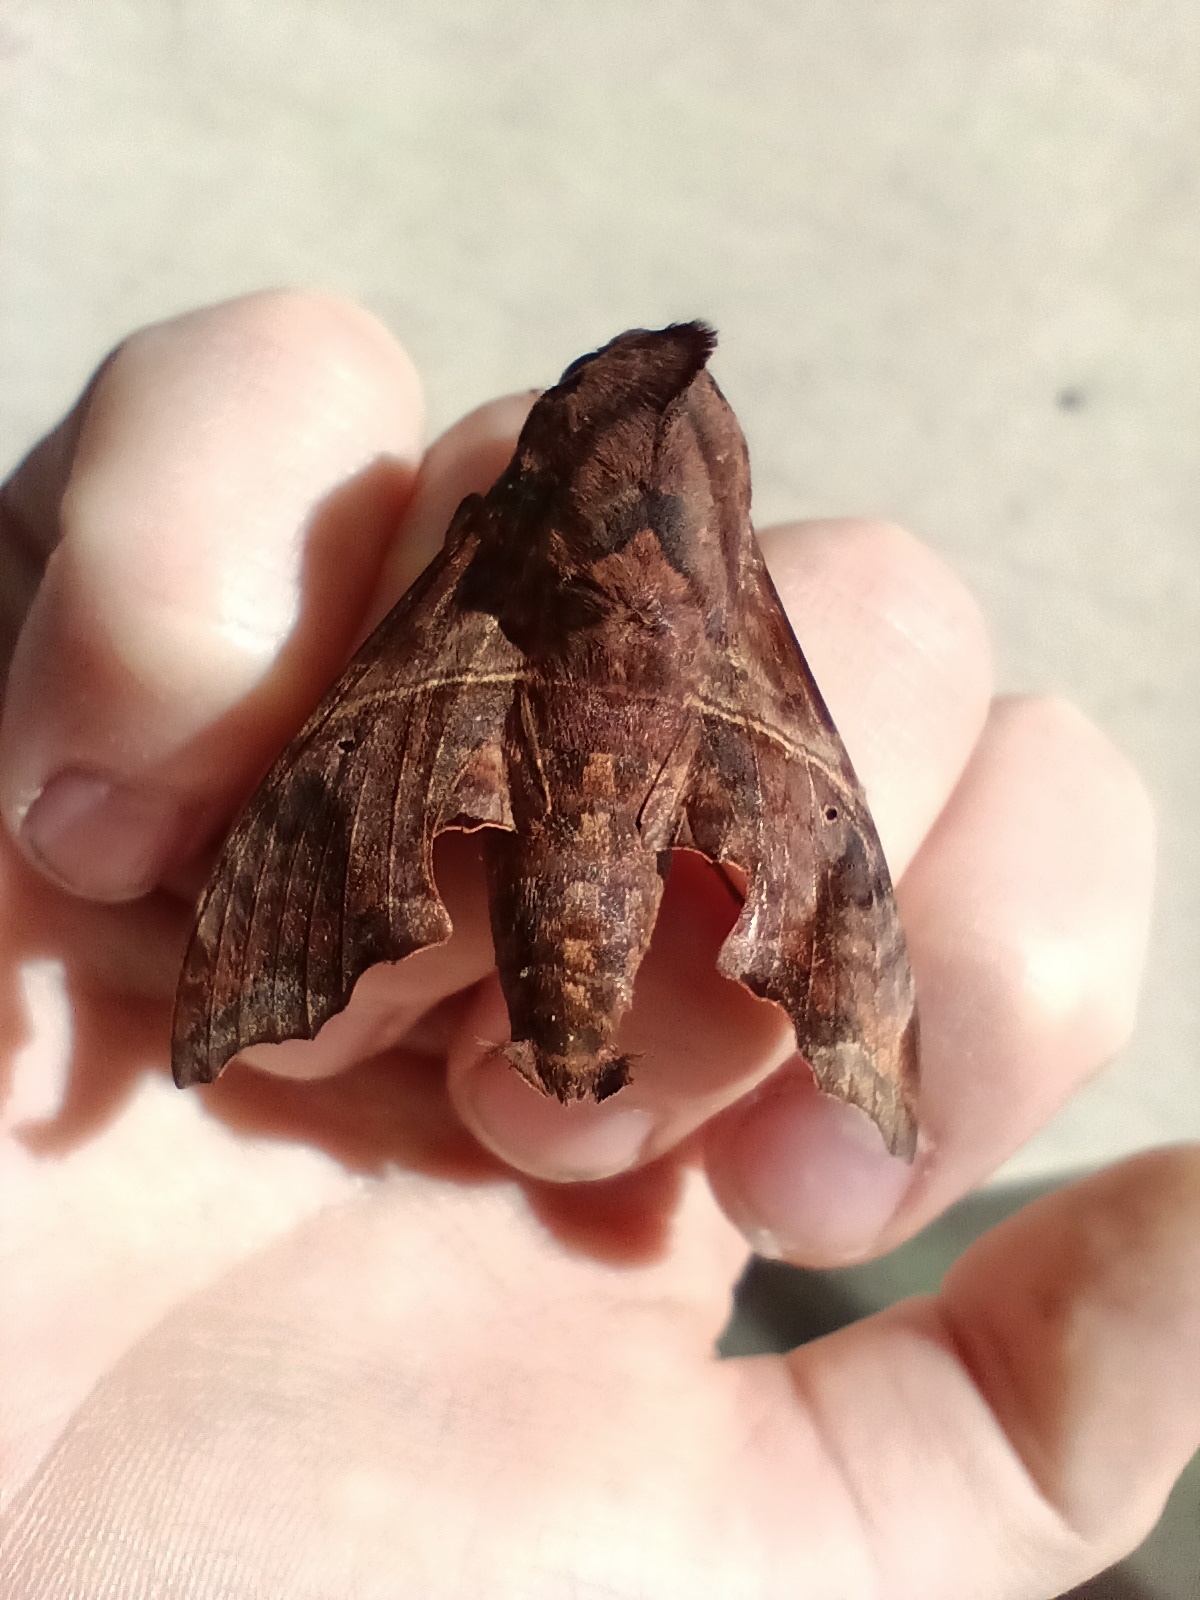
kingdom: Animalia
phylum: Arthropoda
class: Insecta
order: Lepidoptera
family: Sphingidae
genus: Enyo
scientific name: Enyo lugubris
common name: Mournful sphinx
